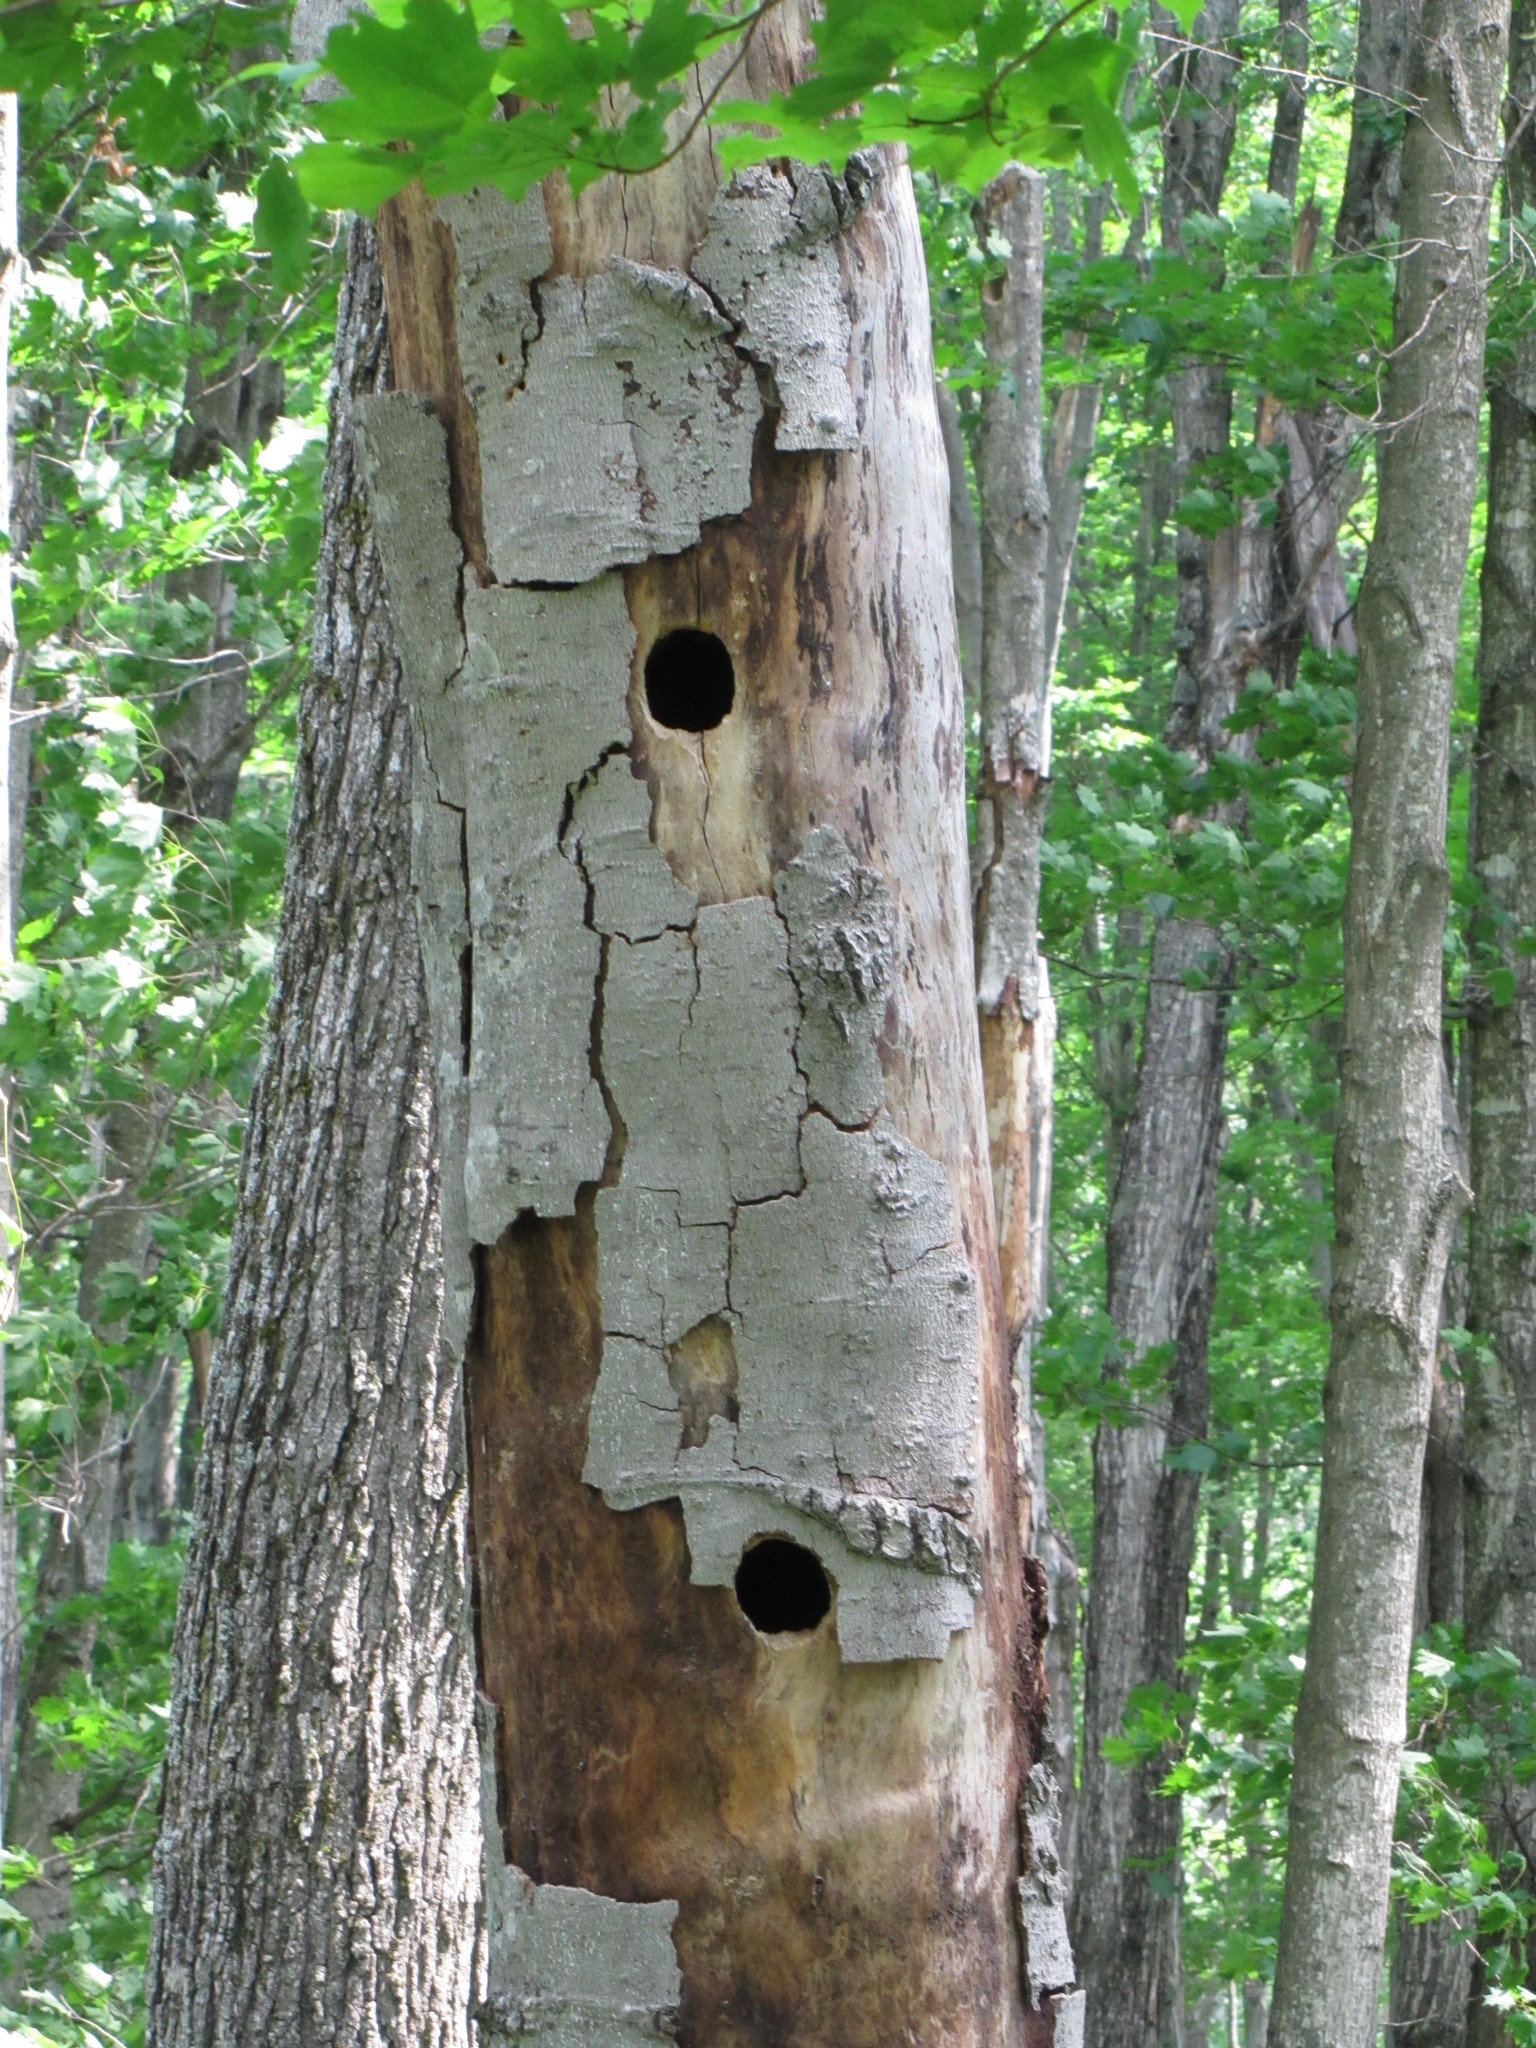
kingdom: Animalia
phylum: Chordata
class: Aves
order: Piciformes
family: Picidae
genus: Dryocopus
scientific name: Dryocopus pileatus
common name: Pileated woodpecker
